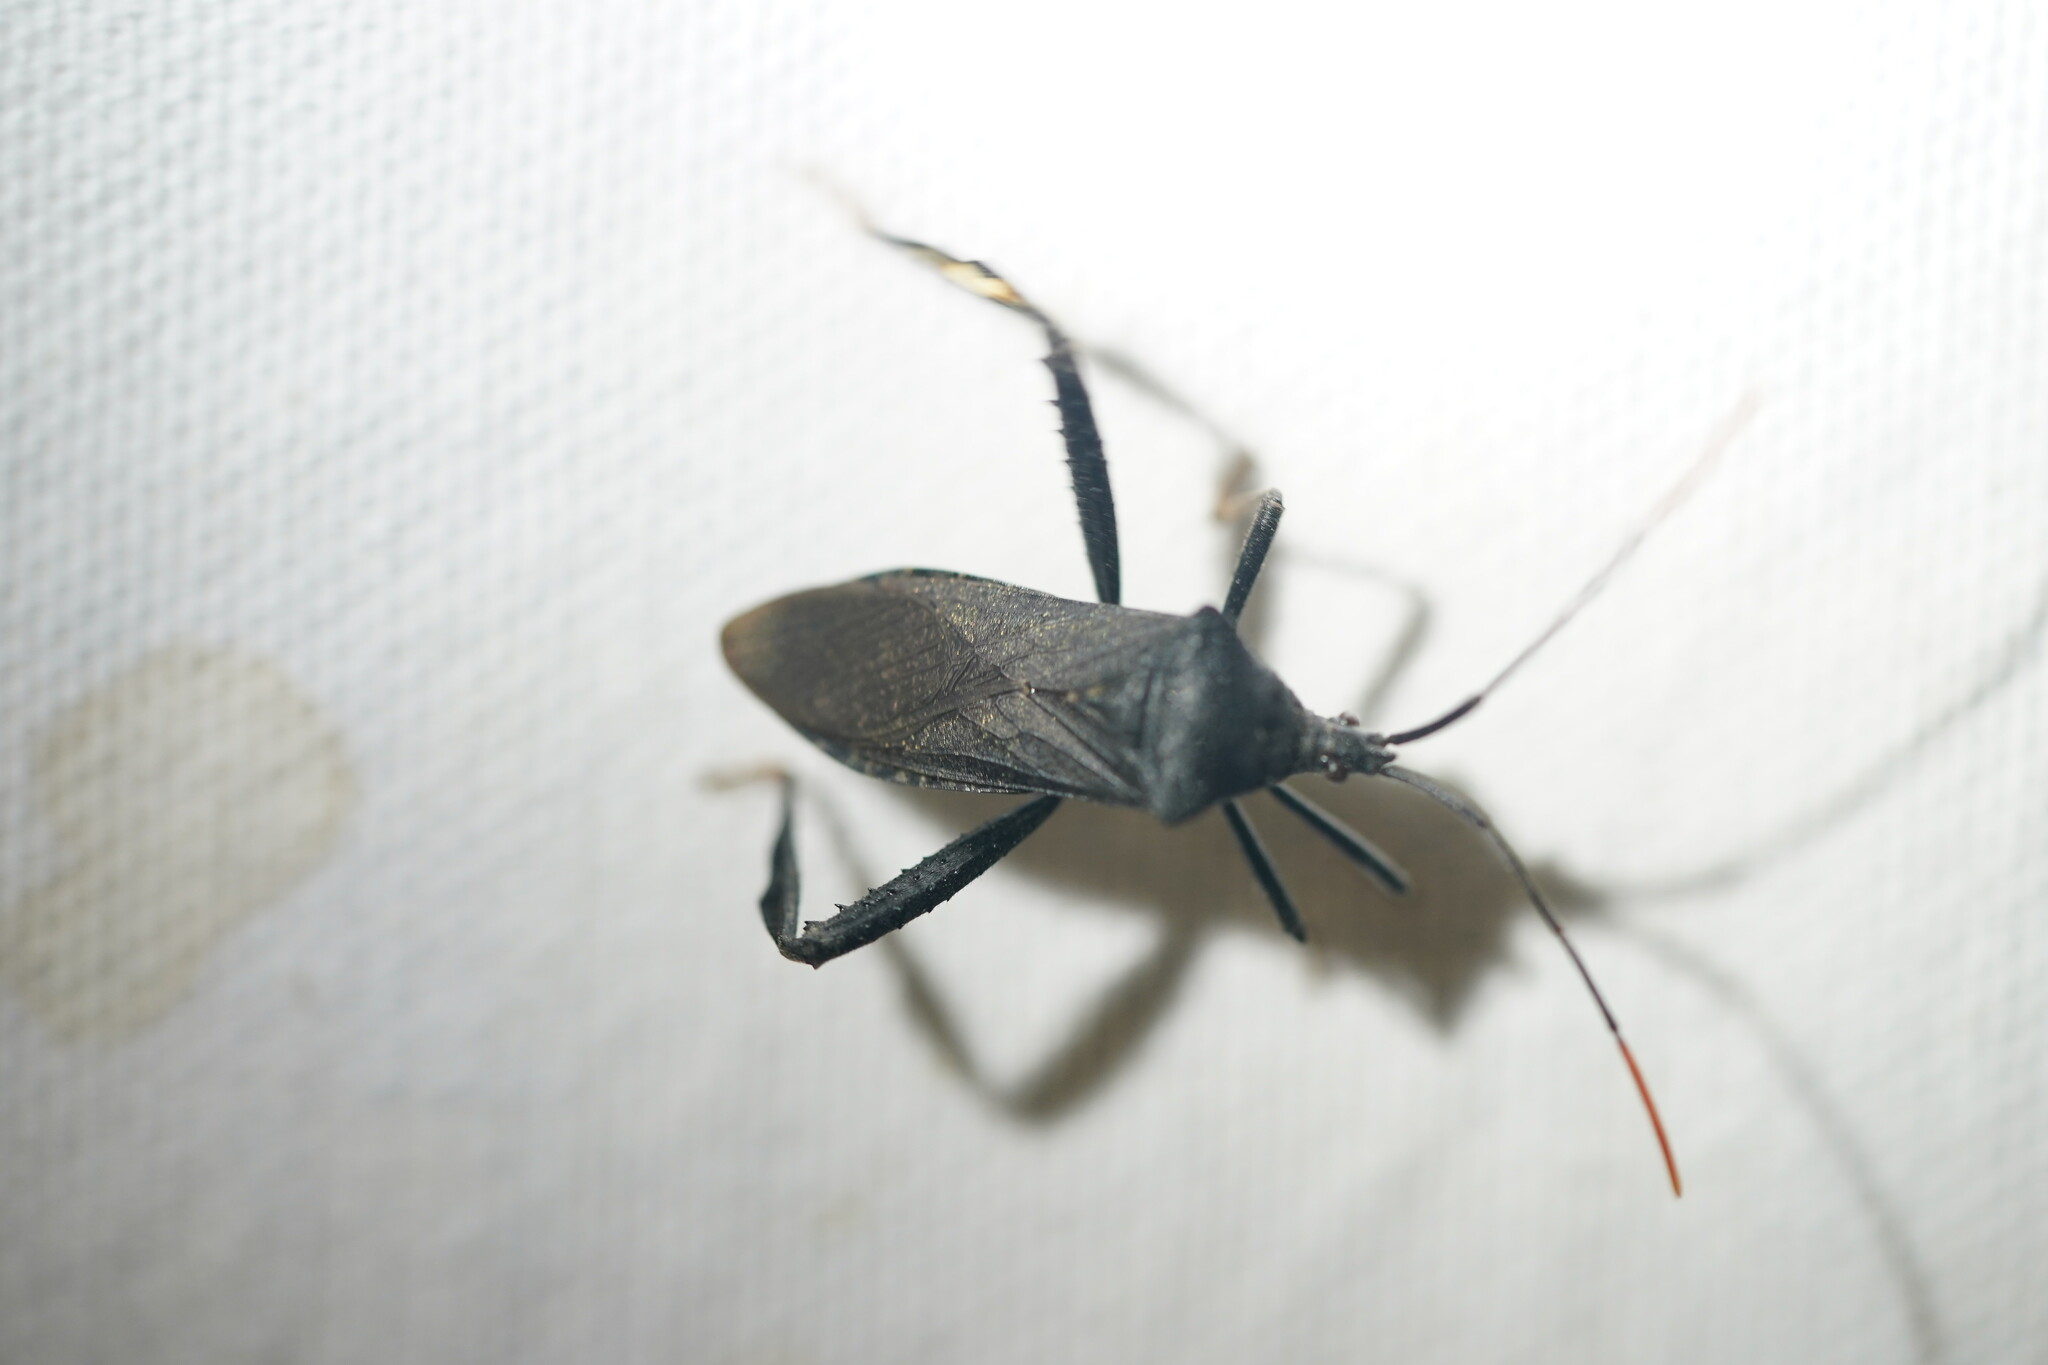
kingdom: Animalia
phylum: Arthropoda
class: Insecta
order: Hemiptera
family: Coreidae
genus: Acanthocephala
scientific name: Acanthocephala terminalis
